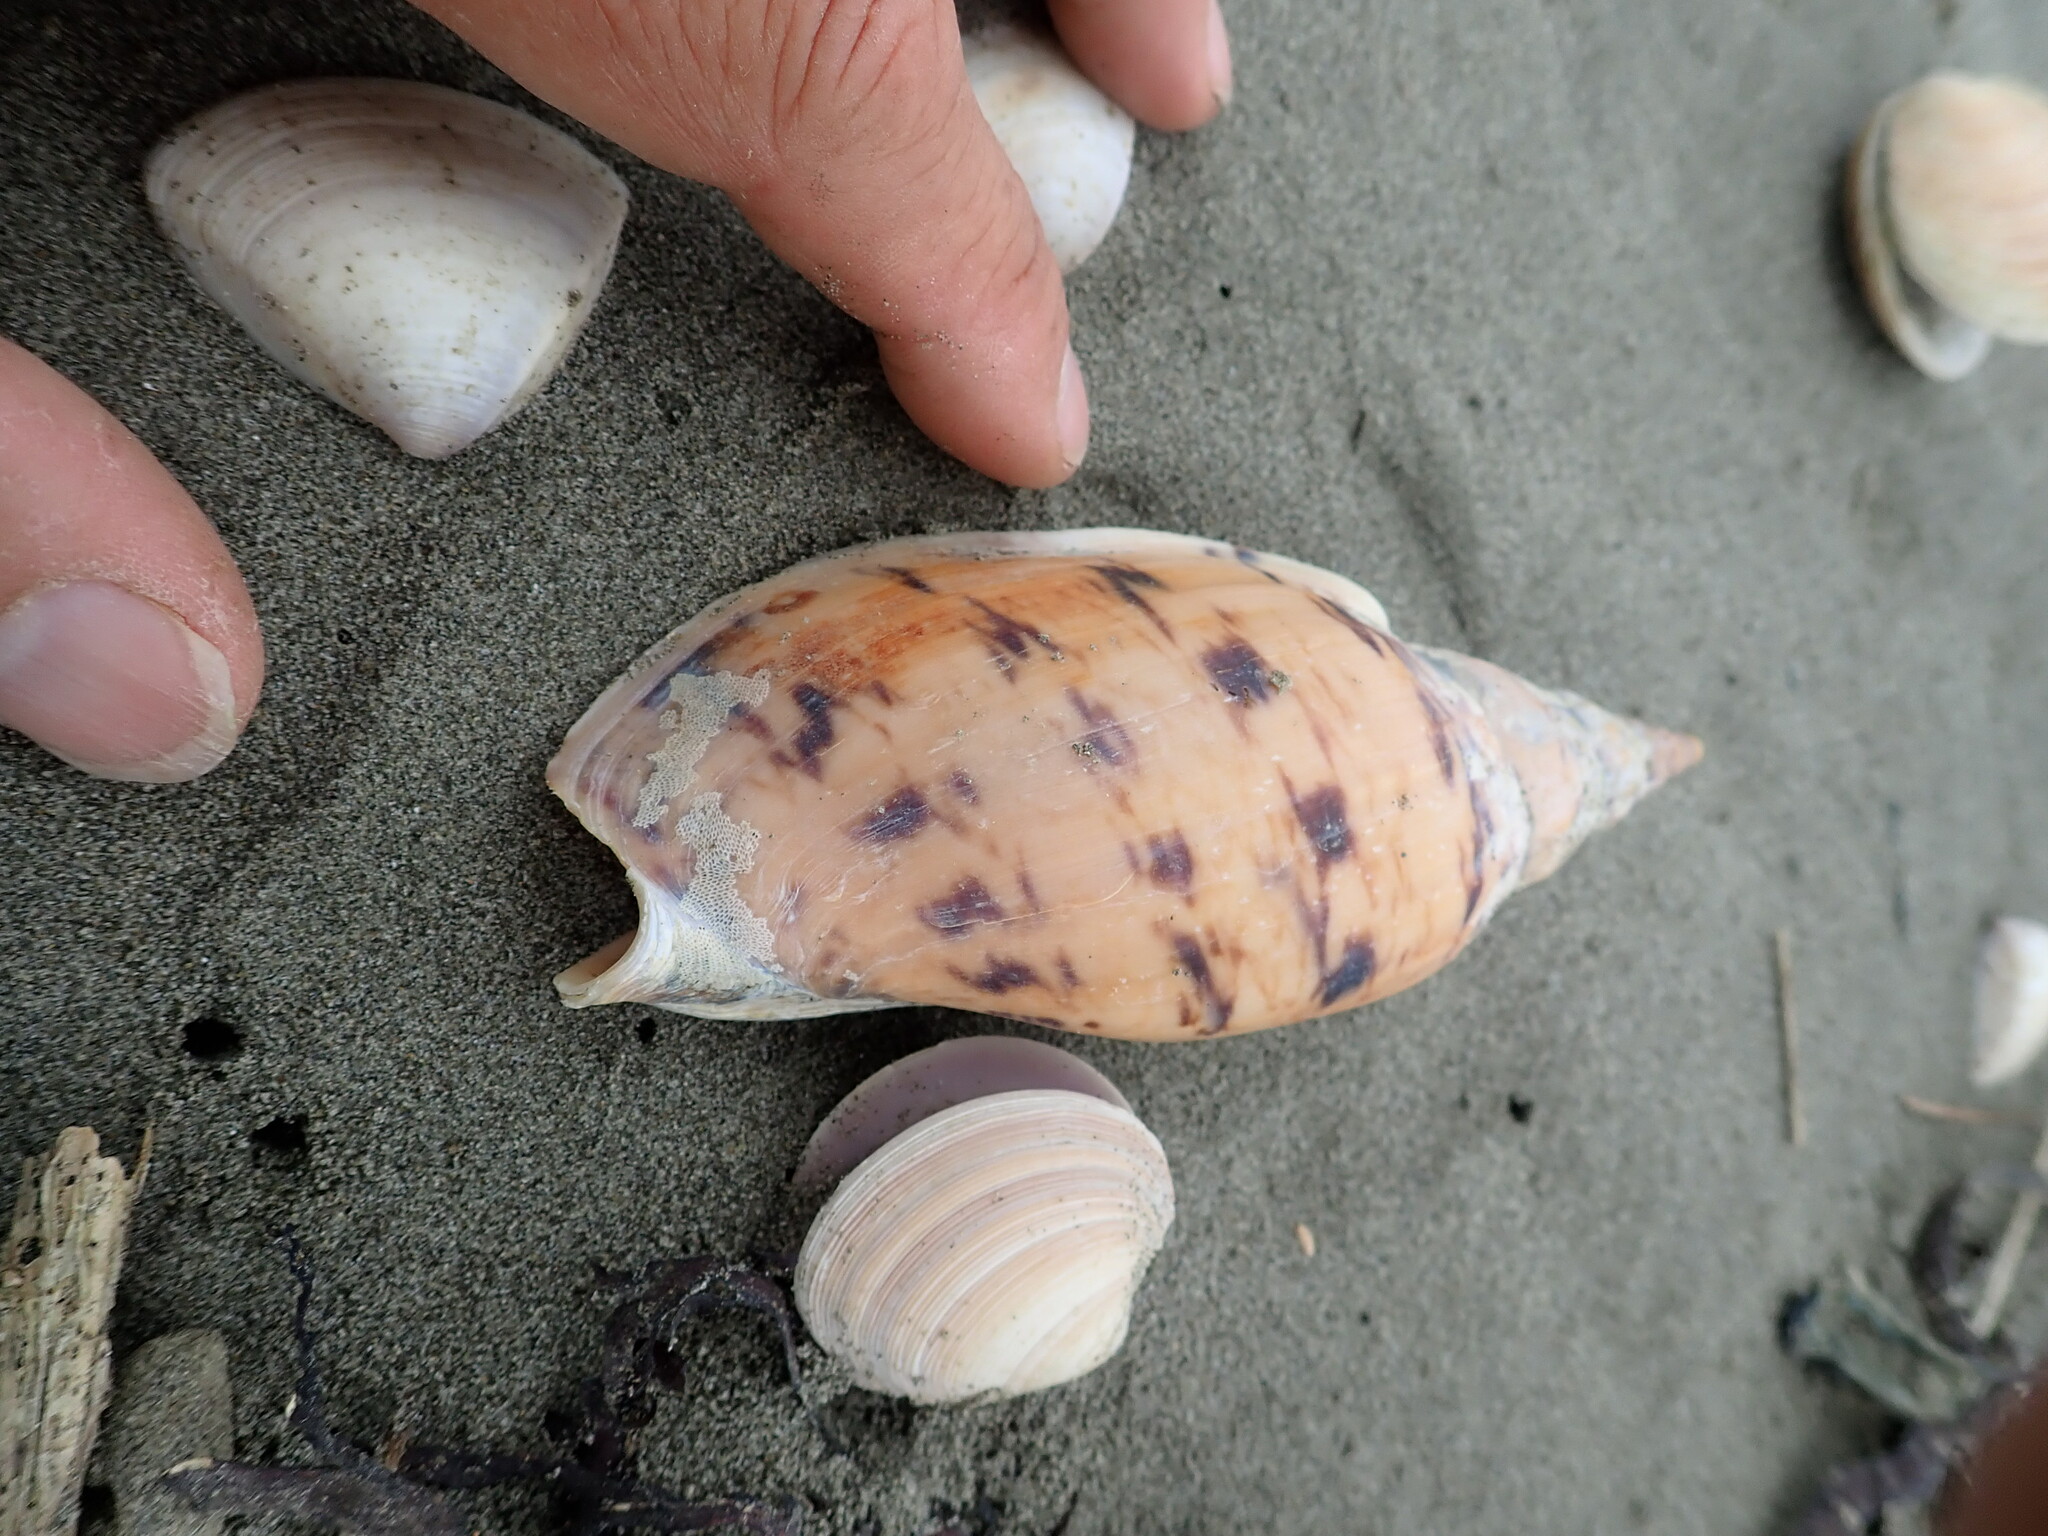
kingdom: Animalia
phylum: Mollusca
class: Gastropoda
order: Neogastropoda
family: Volutidae
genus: Alcithoe
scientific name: Alcithoe arabica
